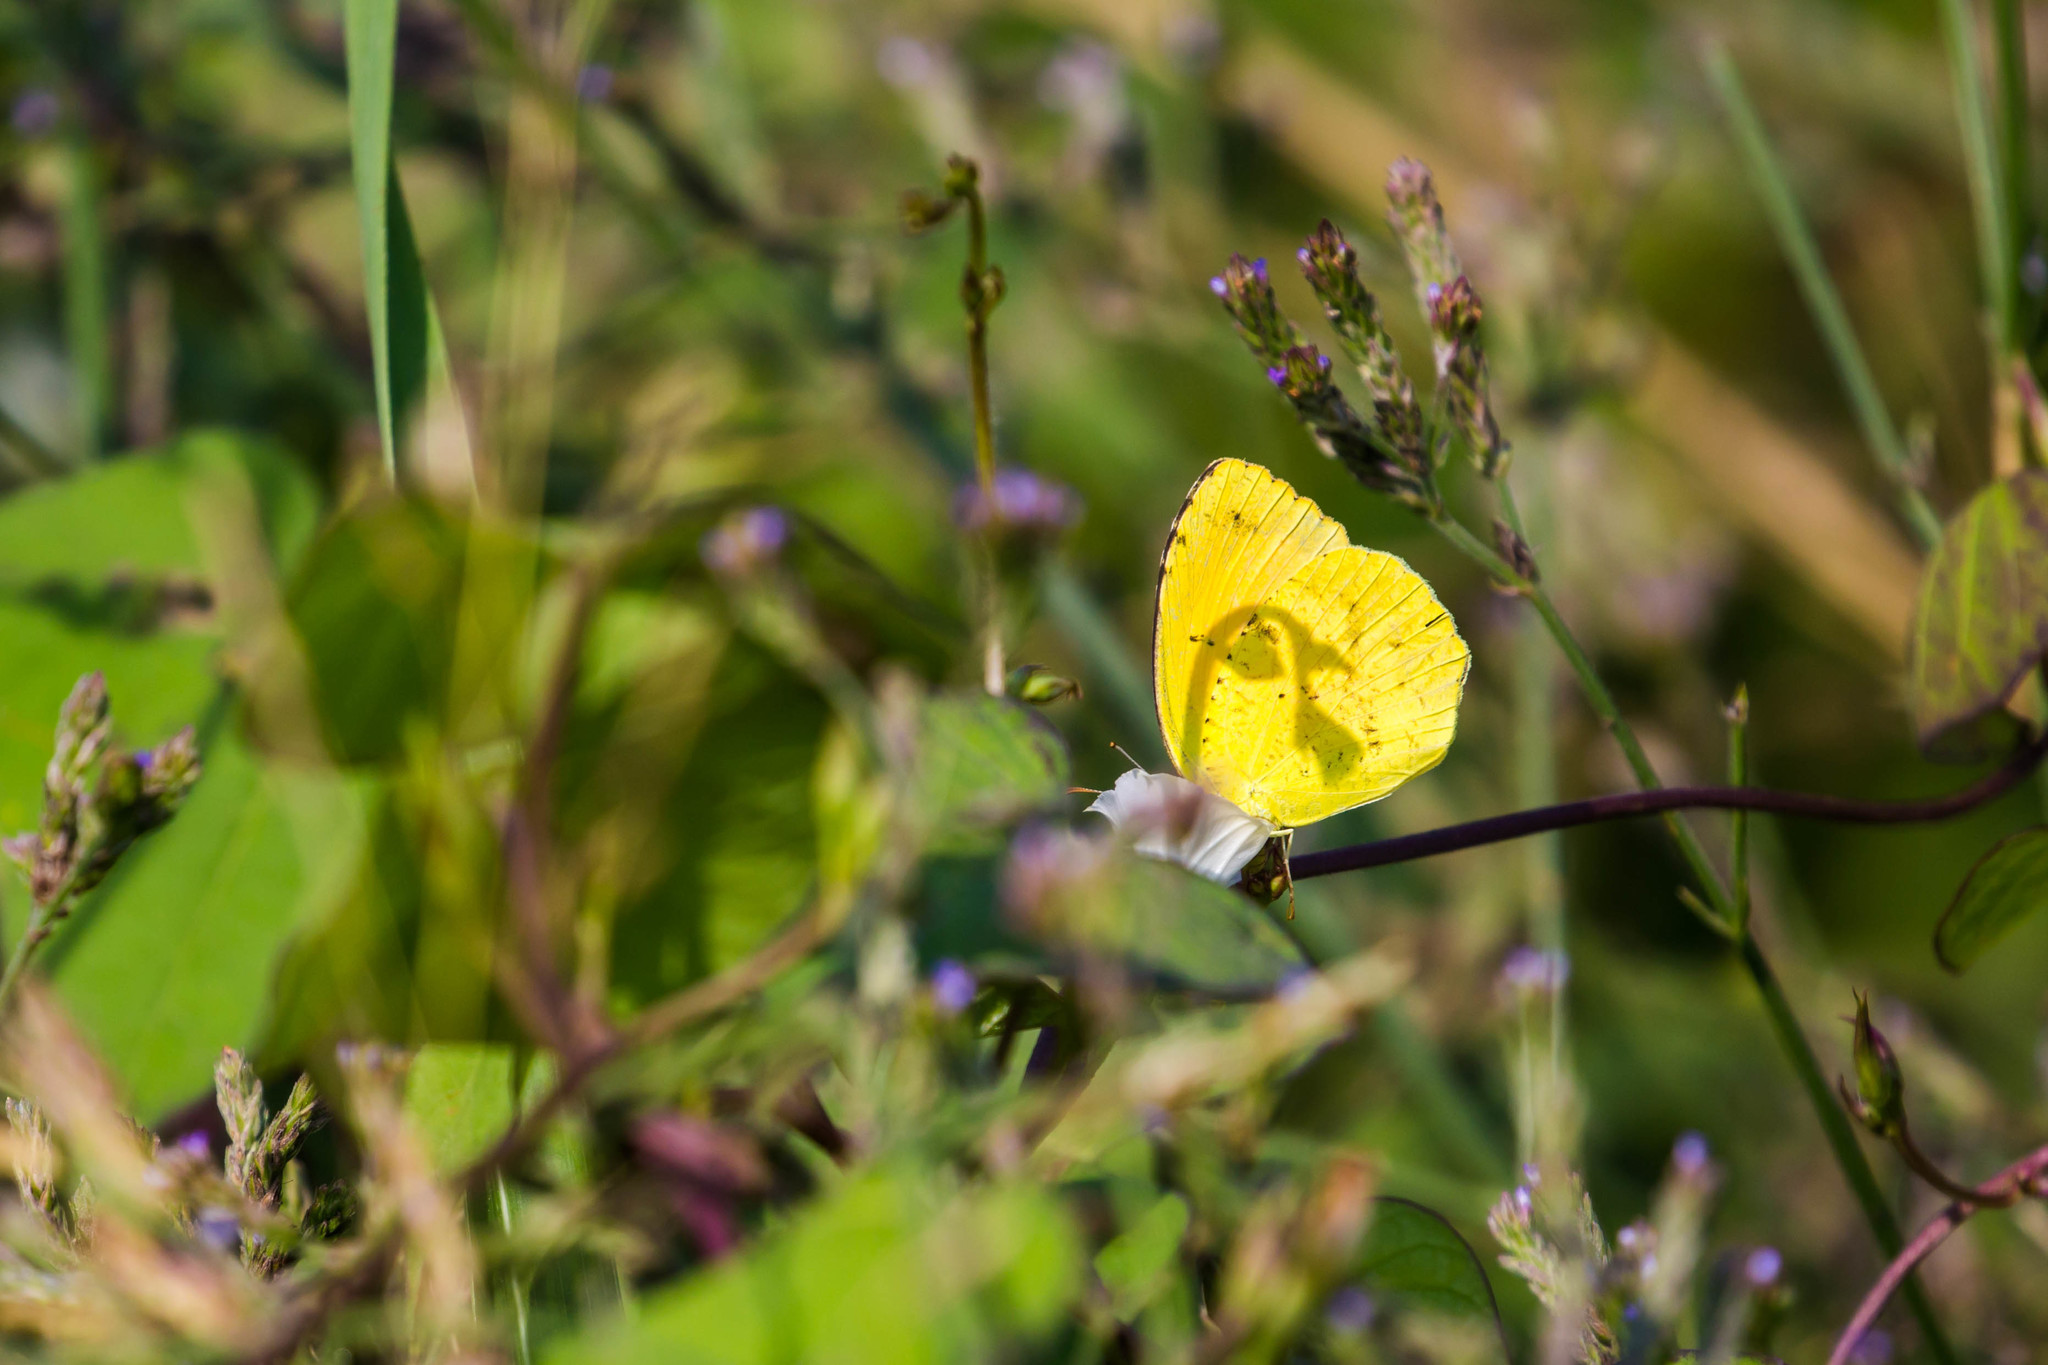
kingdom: Animalia
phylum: Arthropoda
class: Insecta
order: Lepidoptera
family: Pieridae
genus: Abaeis
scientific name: Abaeis nicippe
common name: Sleepy orange
